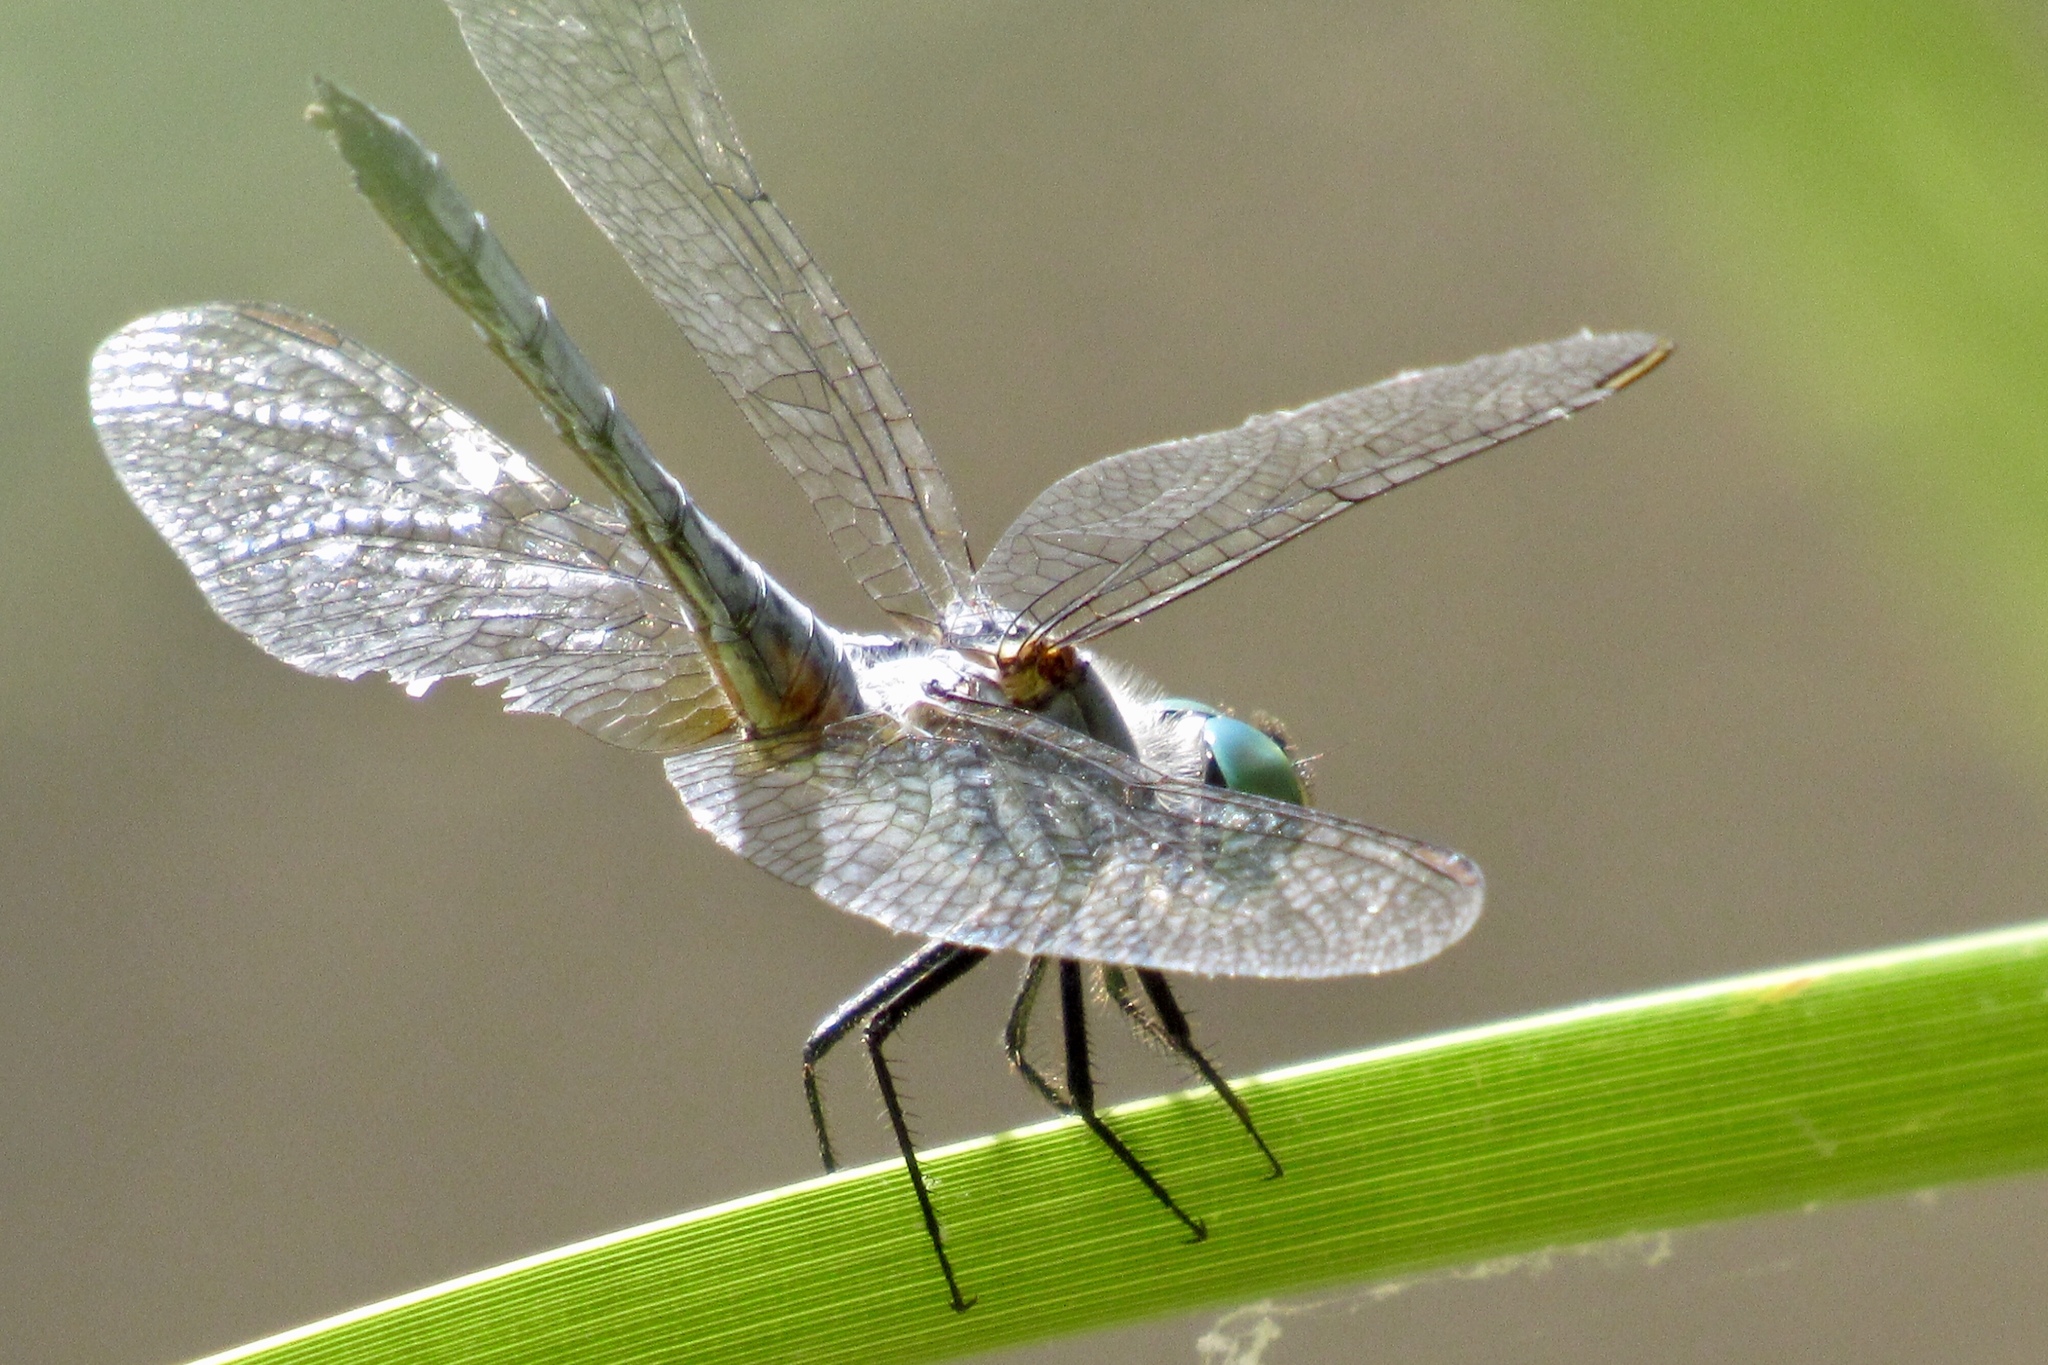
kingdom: Animalia
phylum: Arthropoda
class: Insecta
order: Odonata
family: Libellulidae
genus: Pachydiplax
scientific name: Pachydiplax longipennis
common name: Blue dasher
